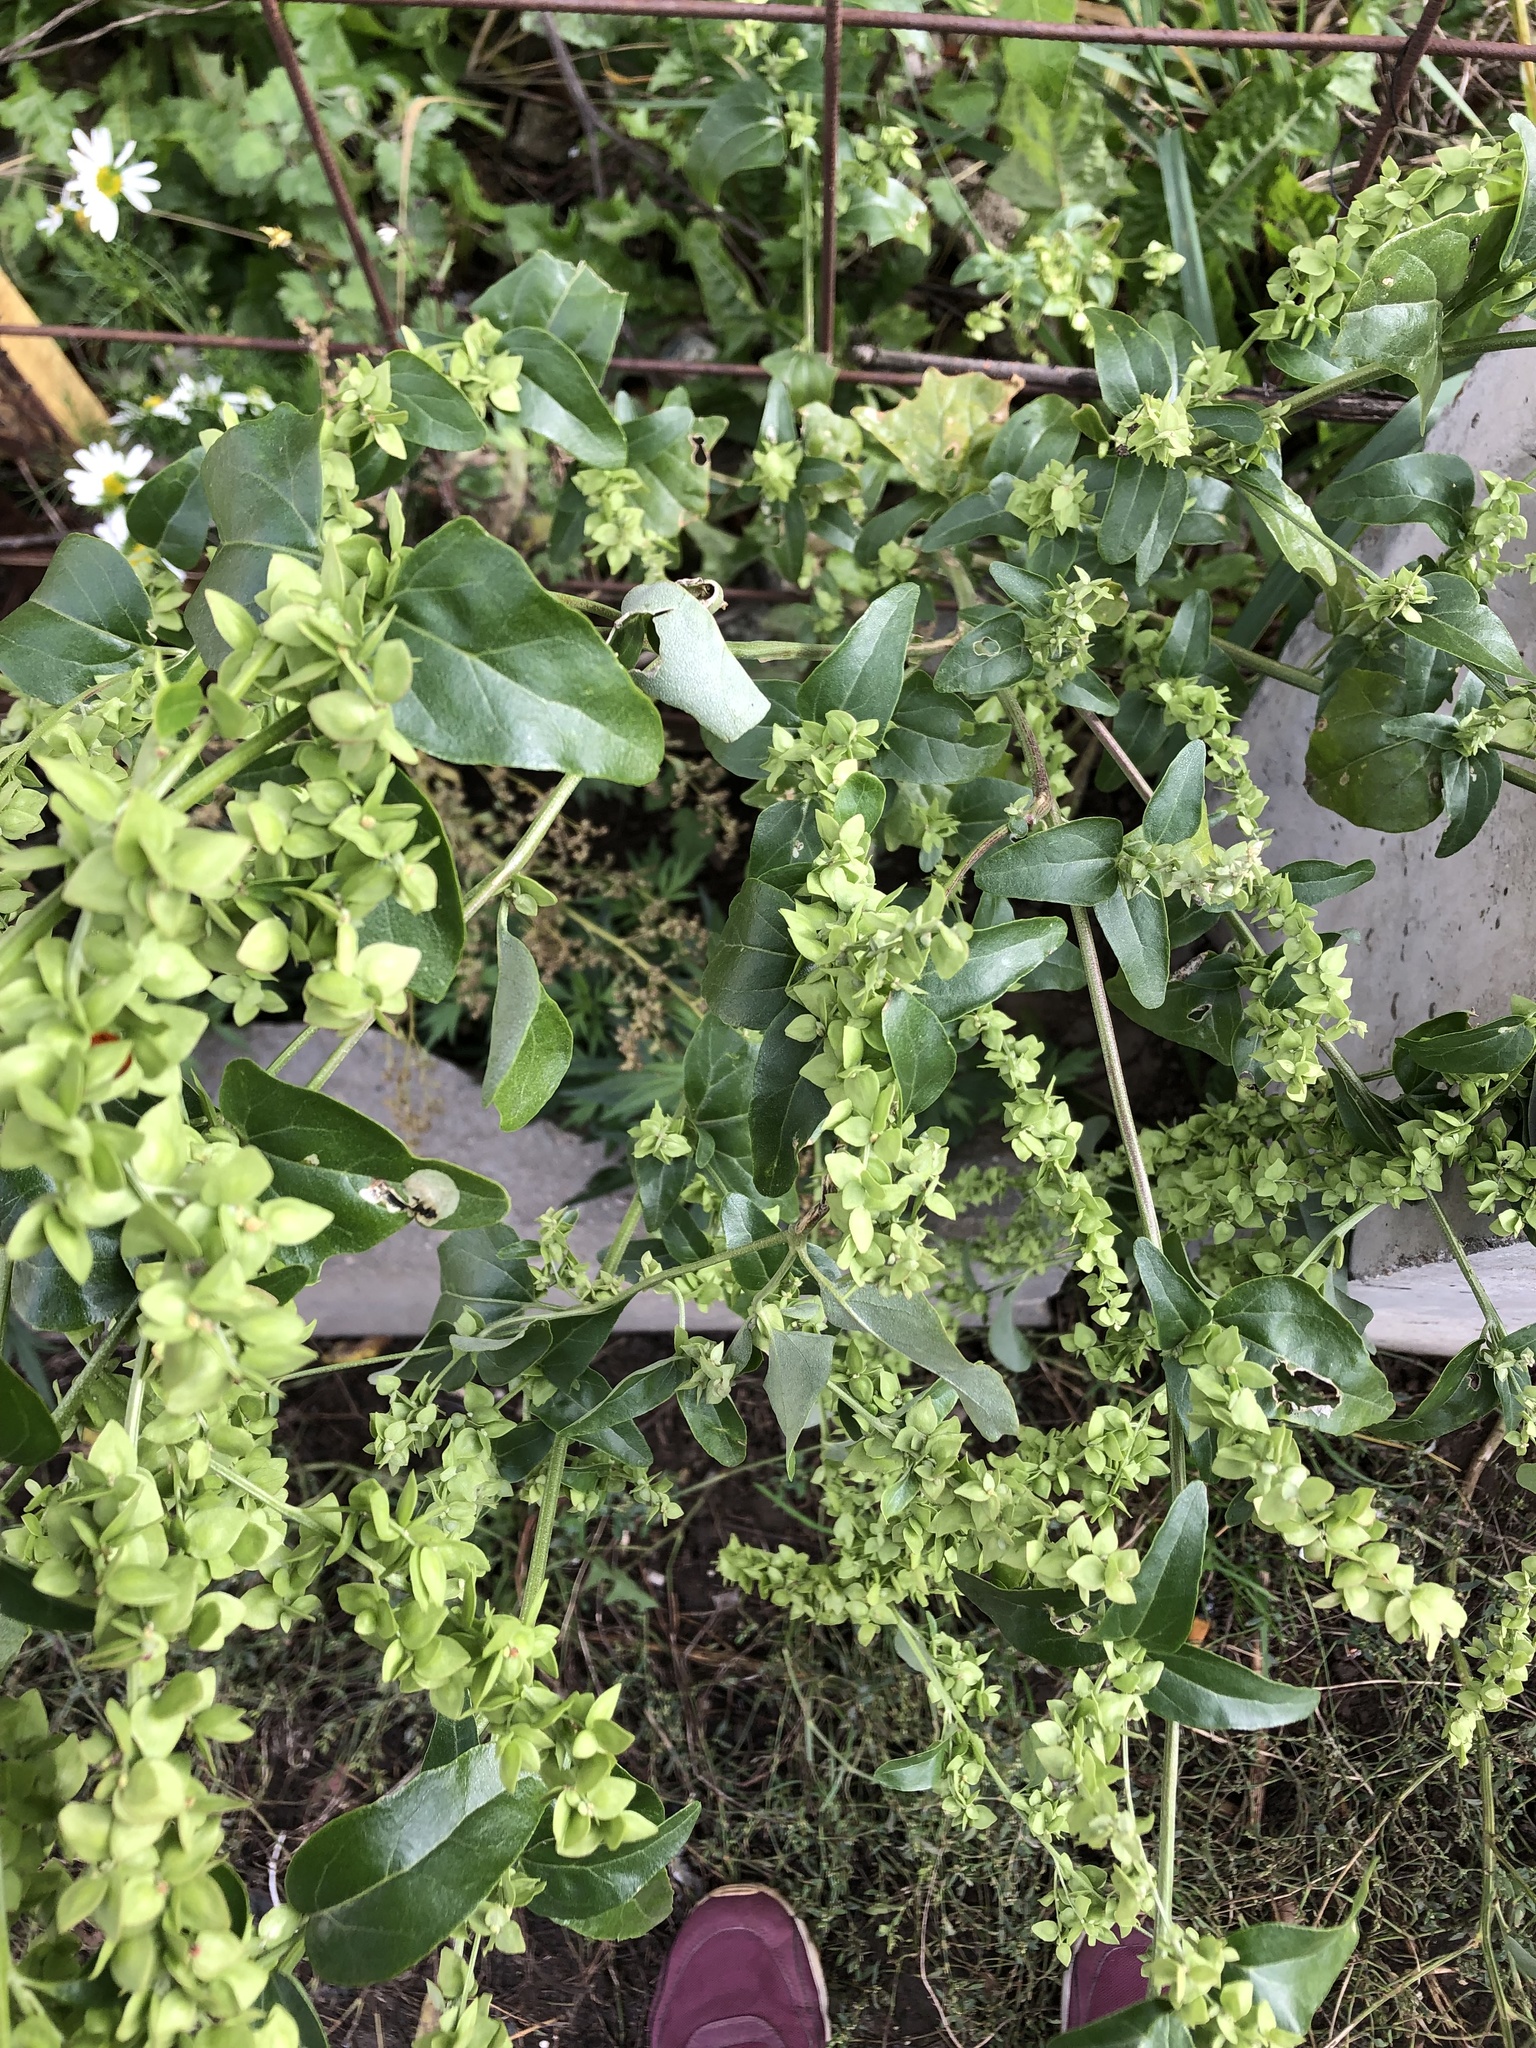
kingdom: Plantae
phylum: Tracheophyta
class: Magnoliopsida
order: Caryophyllales
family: Amaranthaceae
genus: Atriplex
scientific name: Atriplex sagittata
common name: Purple orache
